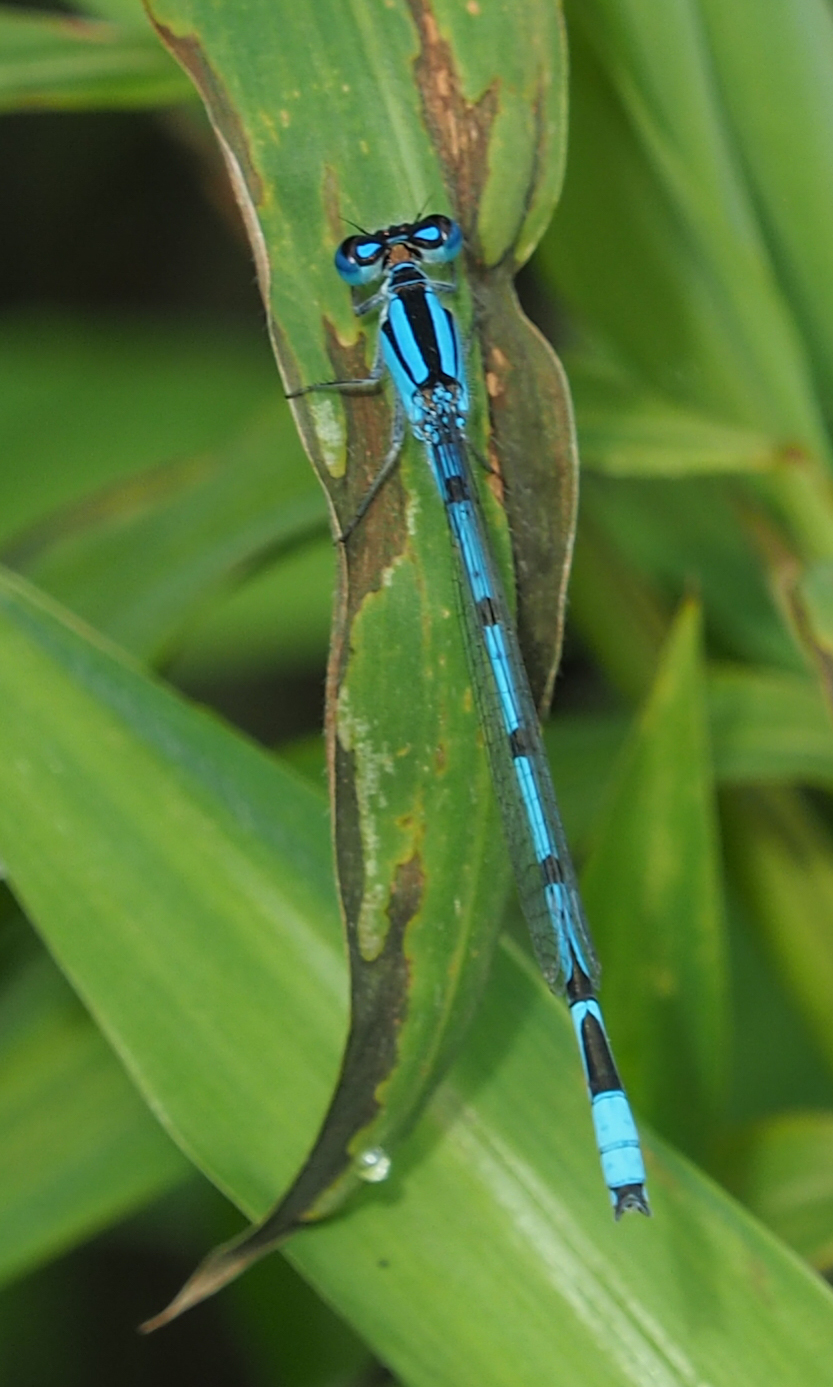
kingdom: Animalia
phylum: Arthropoda
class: Insecta
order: Odonata
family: Coenagrionidae
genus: Enallagma
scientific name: Enallagma civile
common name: Damselfly
